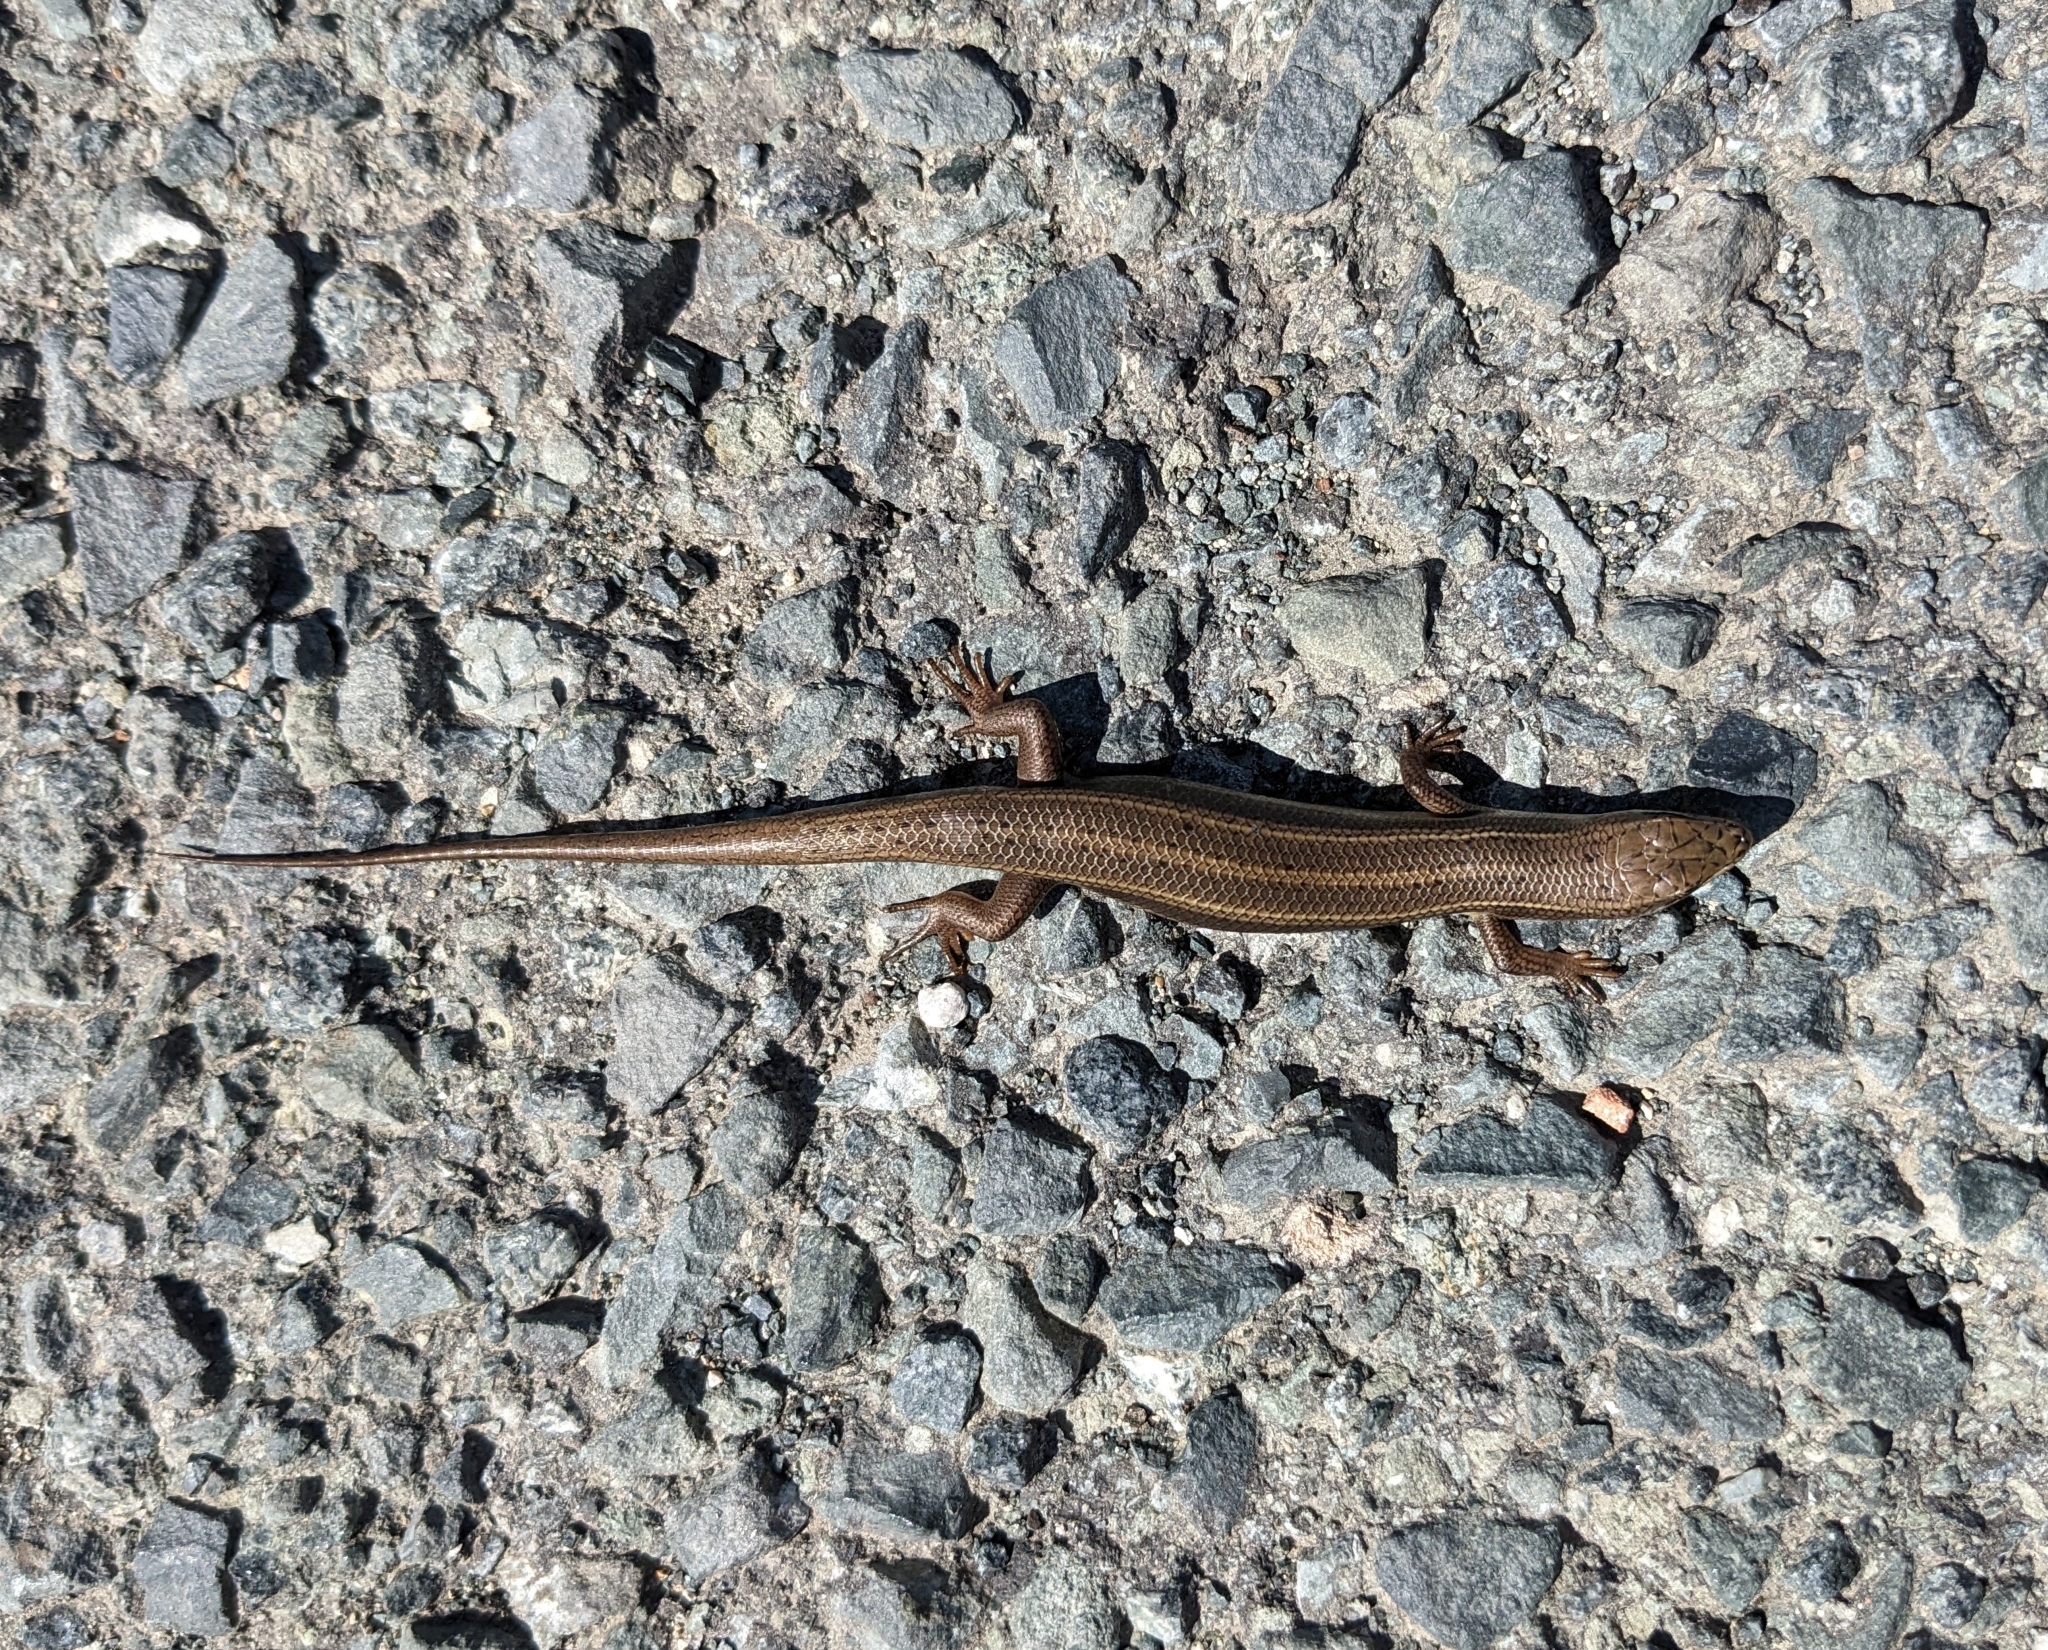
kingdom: Animalia
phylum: Chordata
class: Squamata
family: Scincidae
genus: Heremites
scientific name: Heremites vittatus
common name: Bridled mabuya
